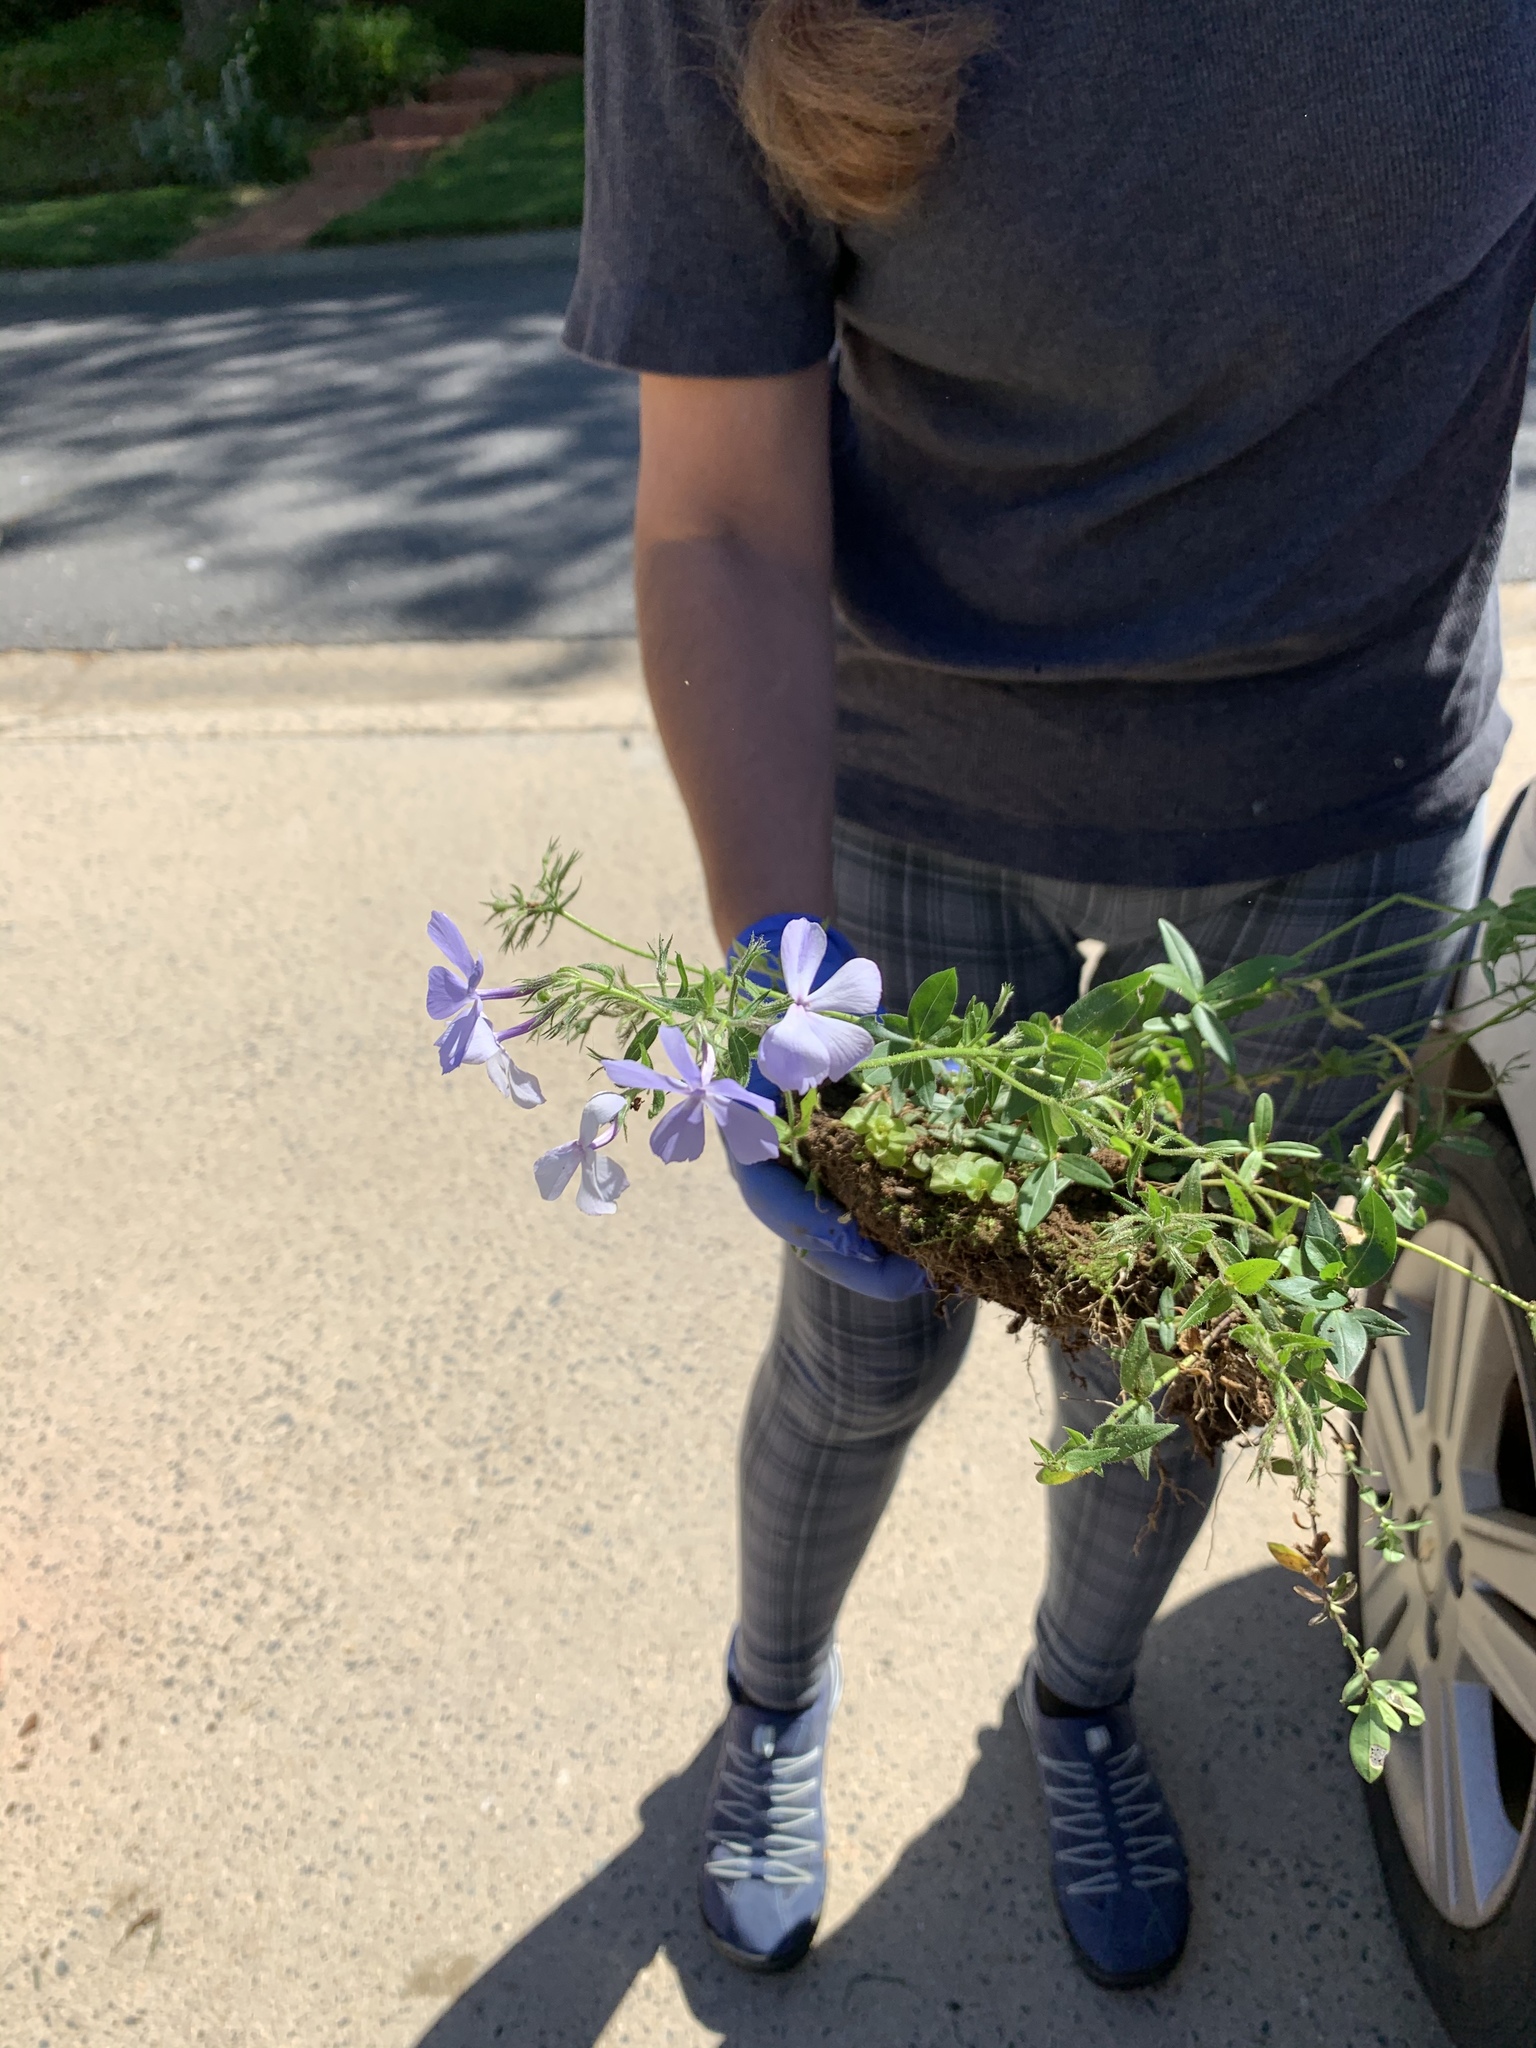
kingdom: Plantae
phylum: Tracheophyta
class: Magnoliopsida
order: Ericales
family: Polemoniaceae
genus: Phlox
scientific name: Phlox divaricata
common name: Blue phlox
